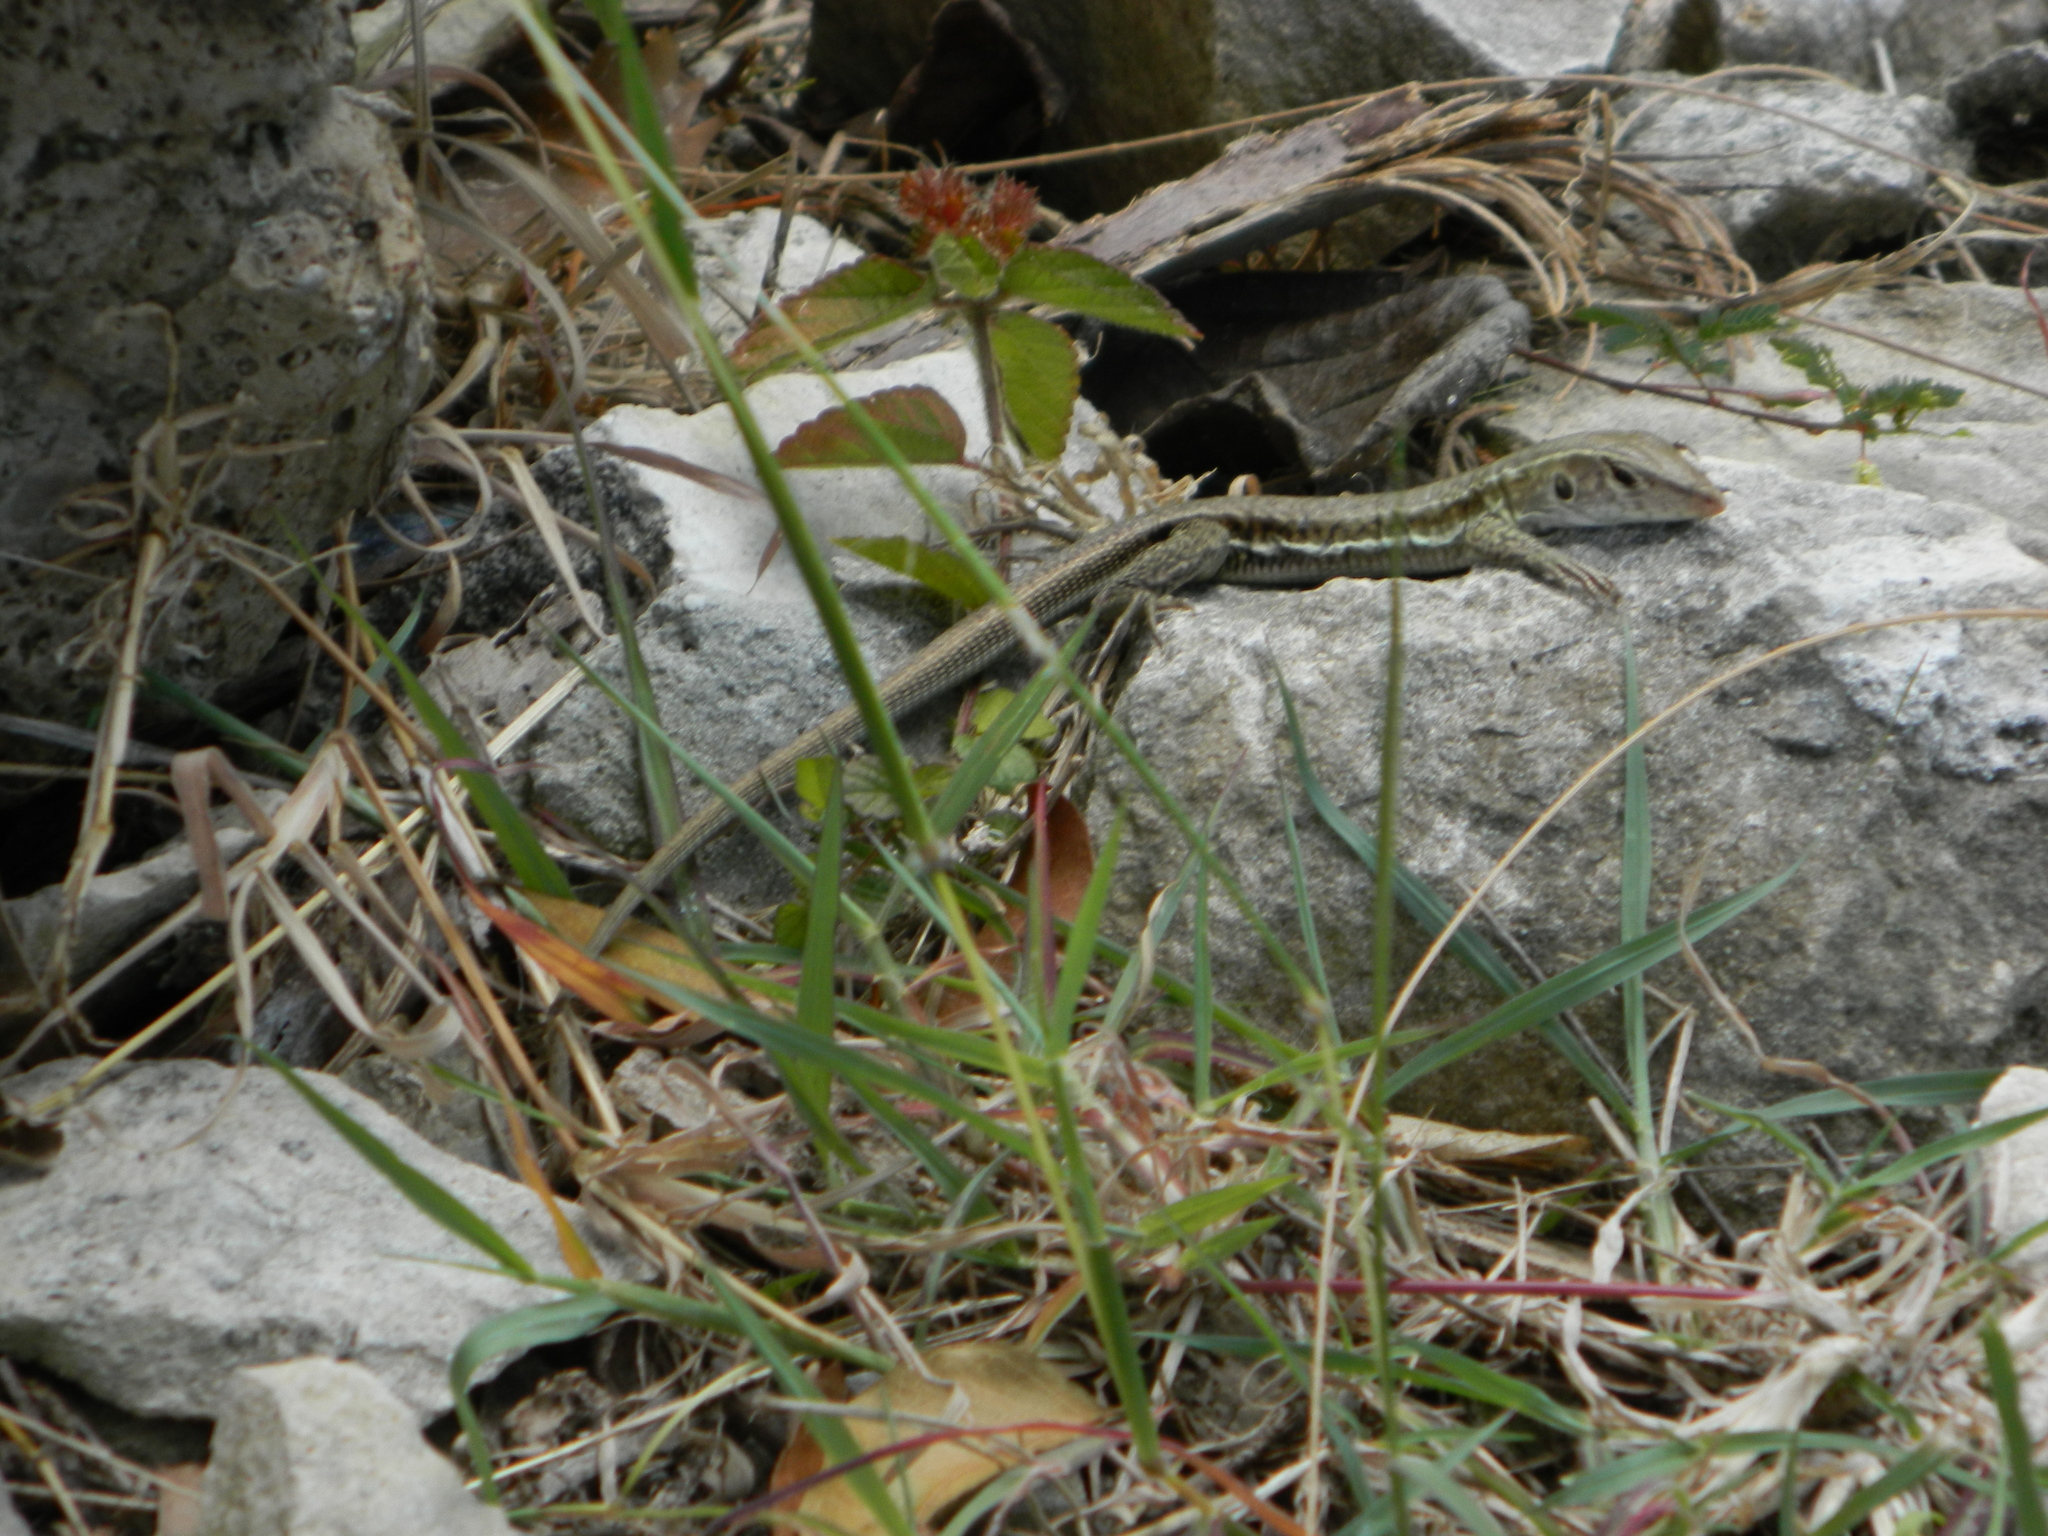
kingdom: Animalia
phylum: Chordata
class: Squamata
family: Teiidae
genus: Pholidoscelis
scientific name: Pholidoscelis griswoldi
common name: Antiguan ameiva
